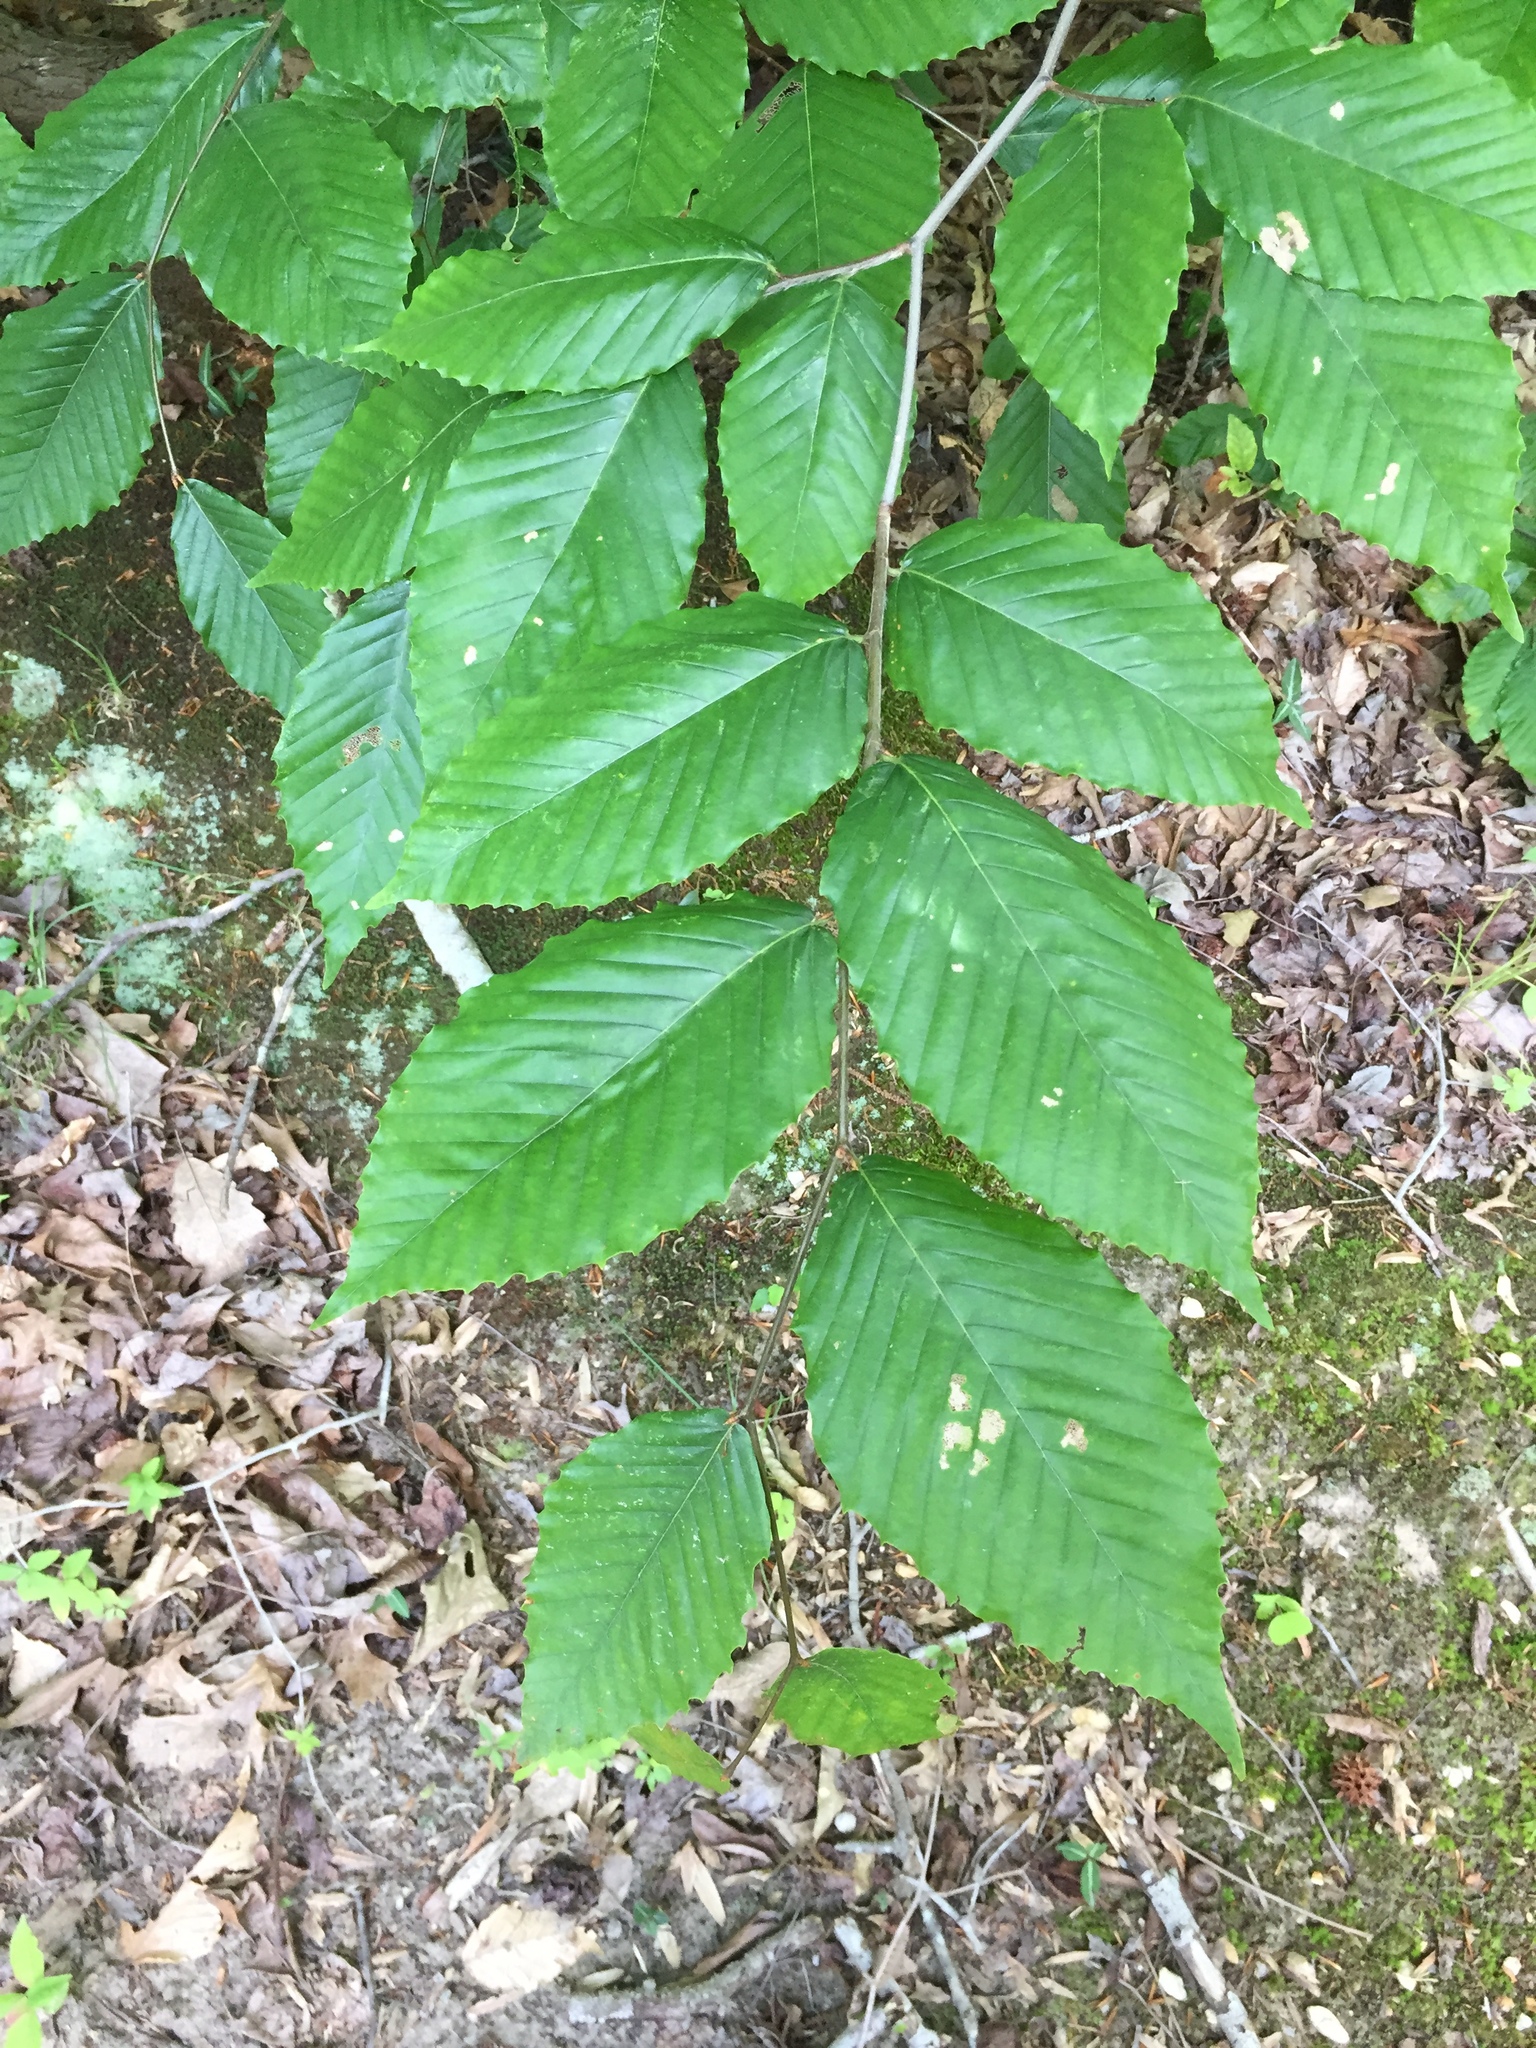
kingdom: Plantae
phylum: Tracheophyta
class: Magnoliopsida
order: Fagales
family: Fagaceae
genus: Fagus
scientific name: Fagus grandifolia
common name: American beech
